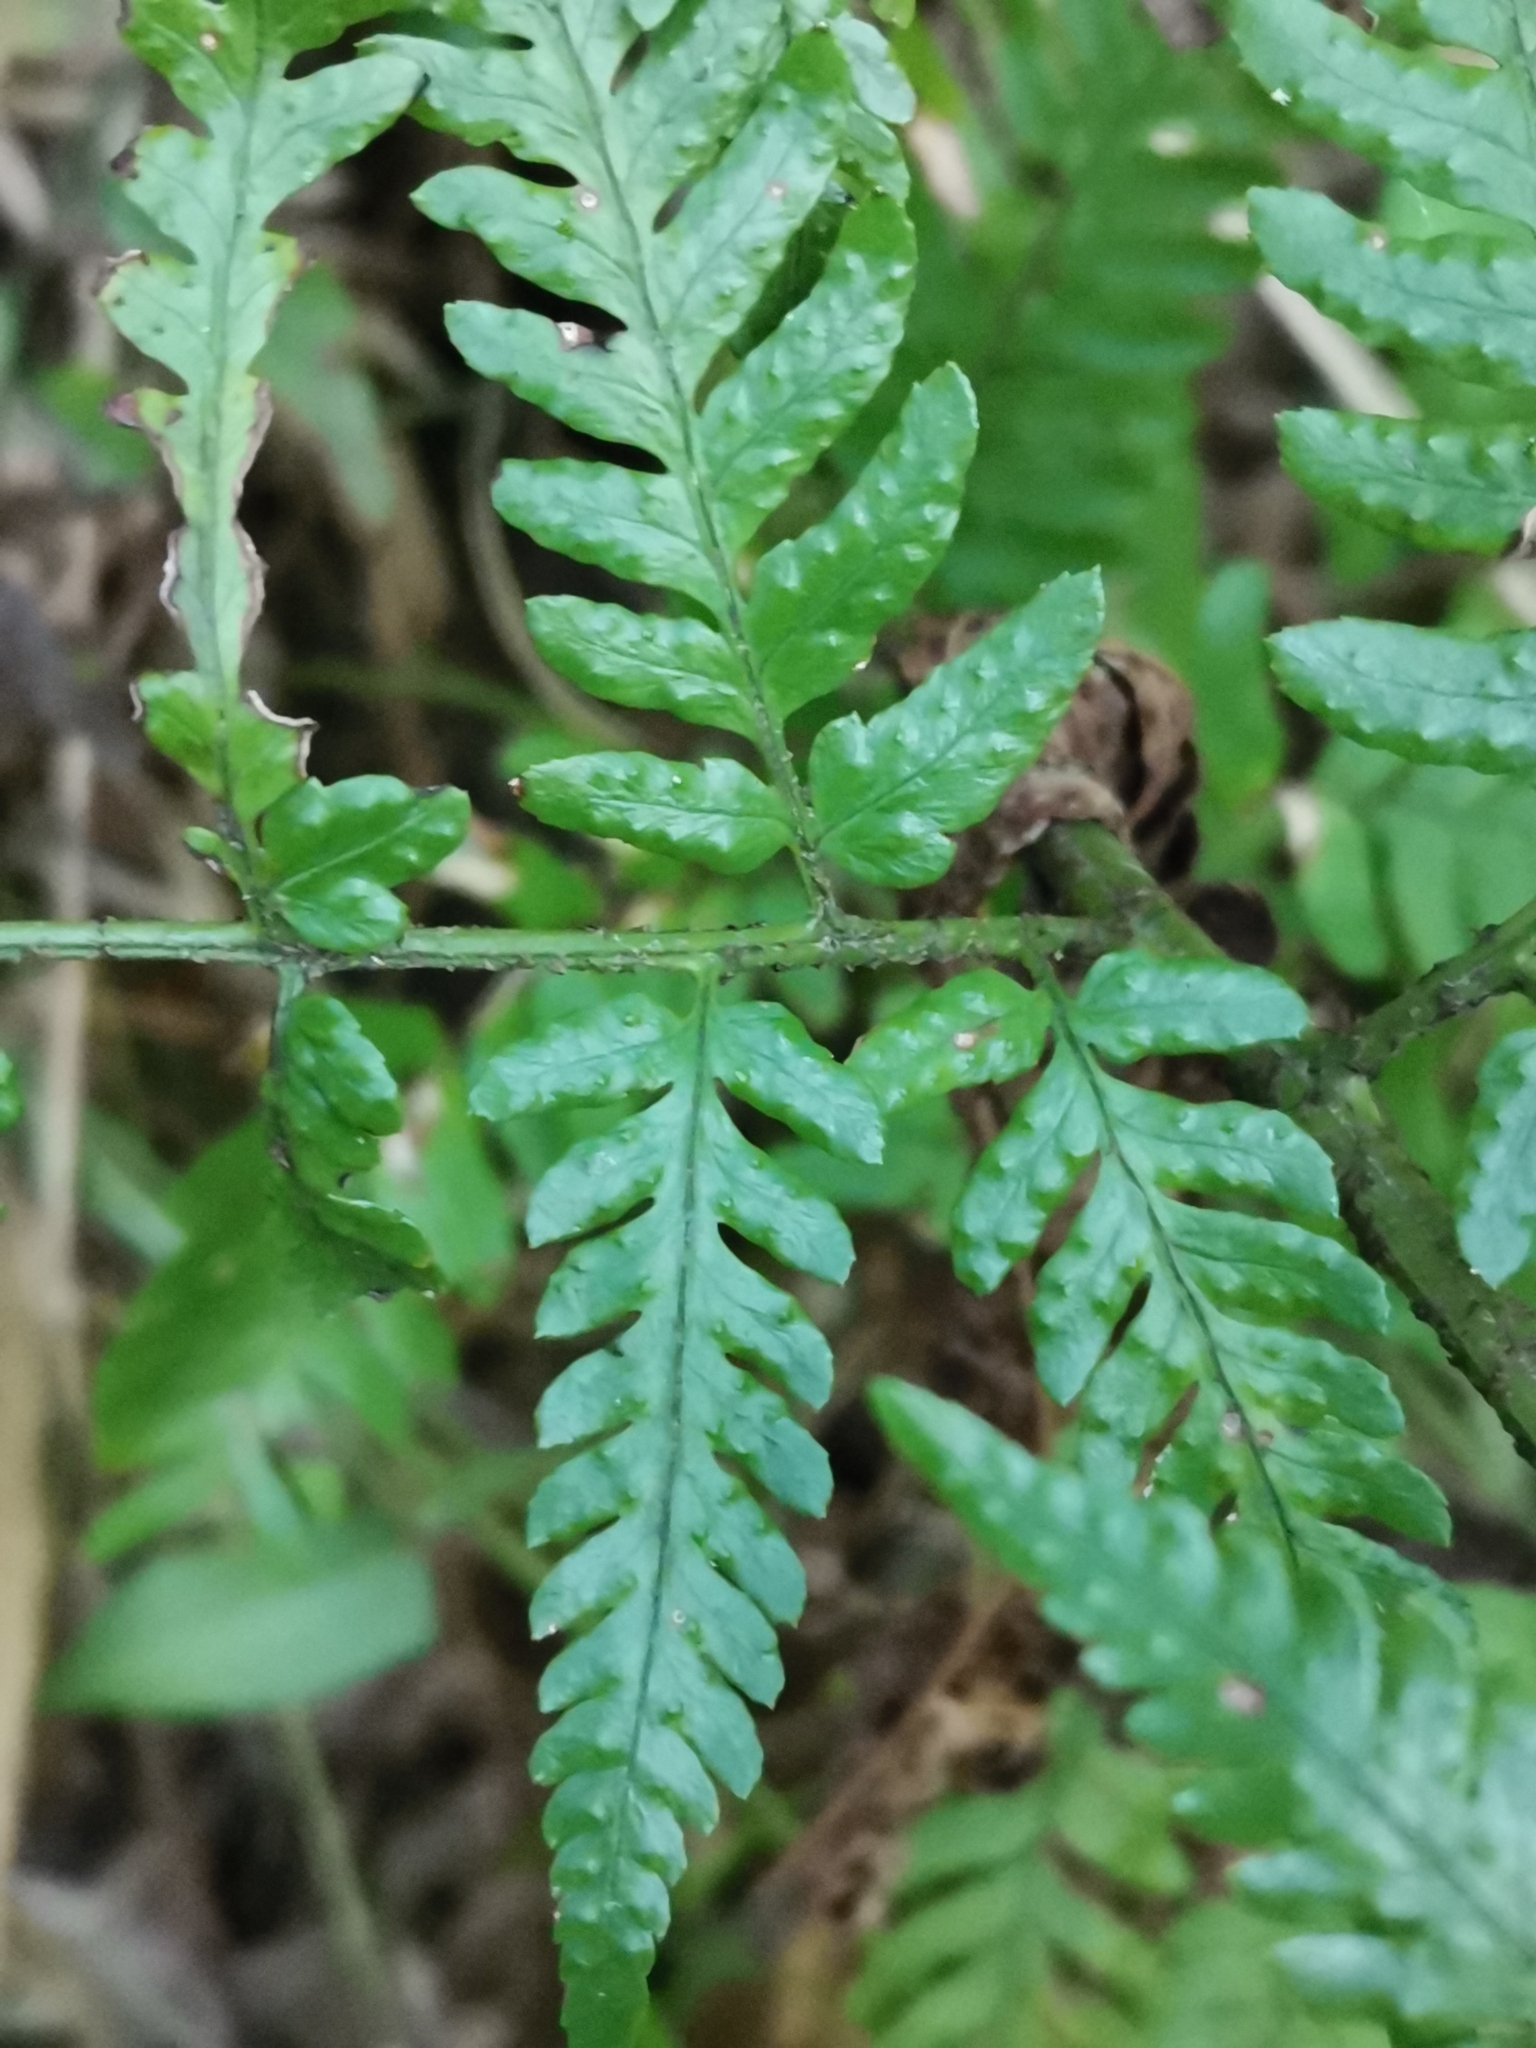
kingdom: Plantae
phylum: Tracheophyta
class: Polypodiopsida
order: Polypodiales
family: Dryopteridaceae
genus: Dryopteris
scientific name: Dryopteris sacrosancta
